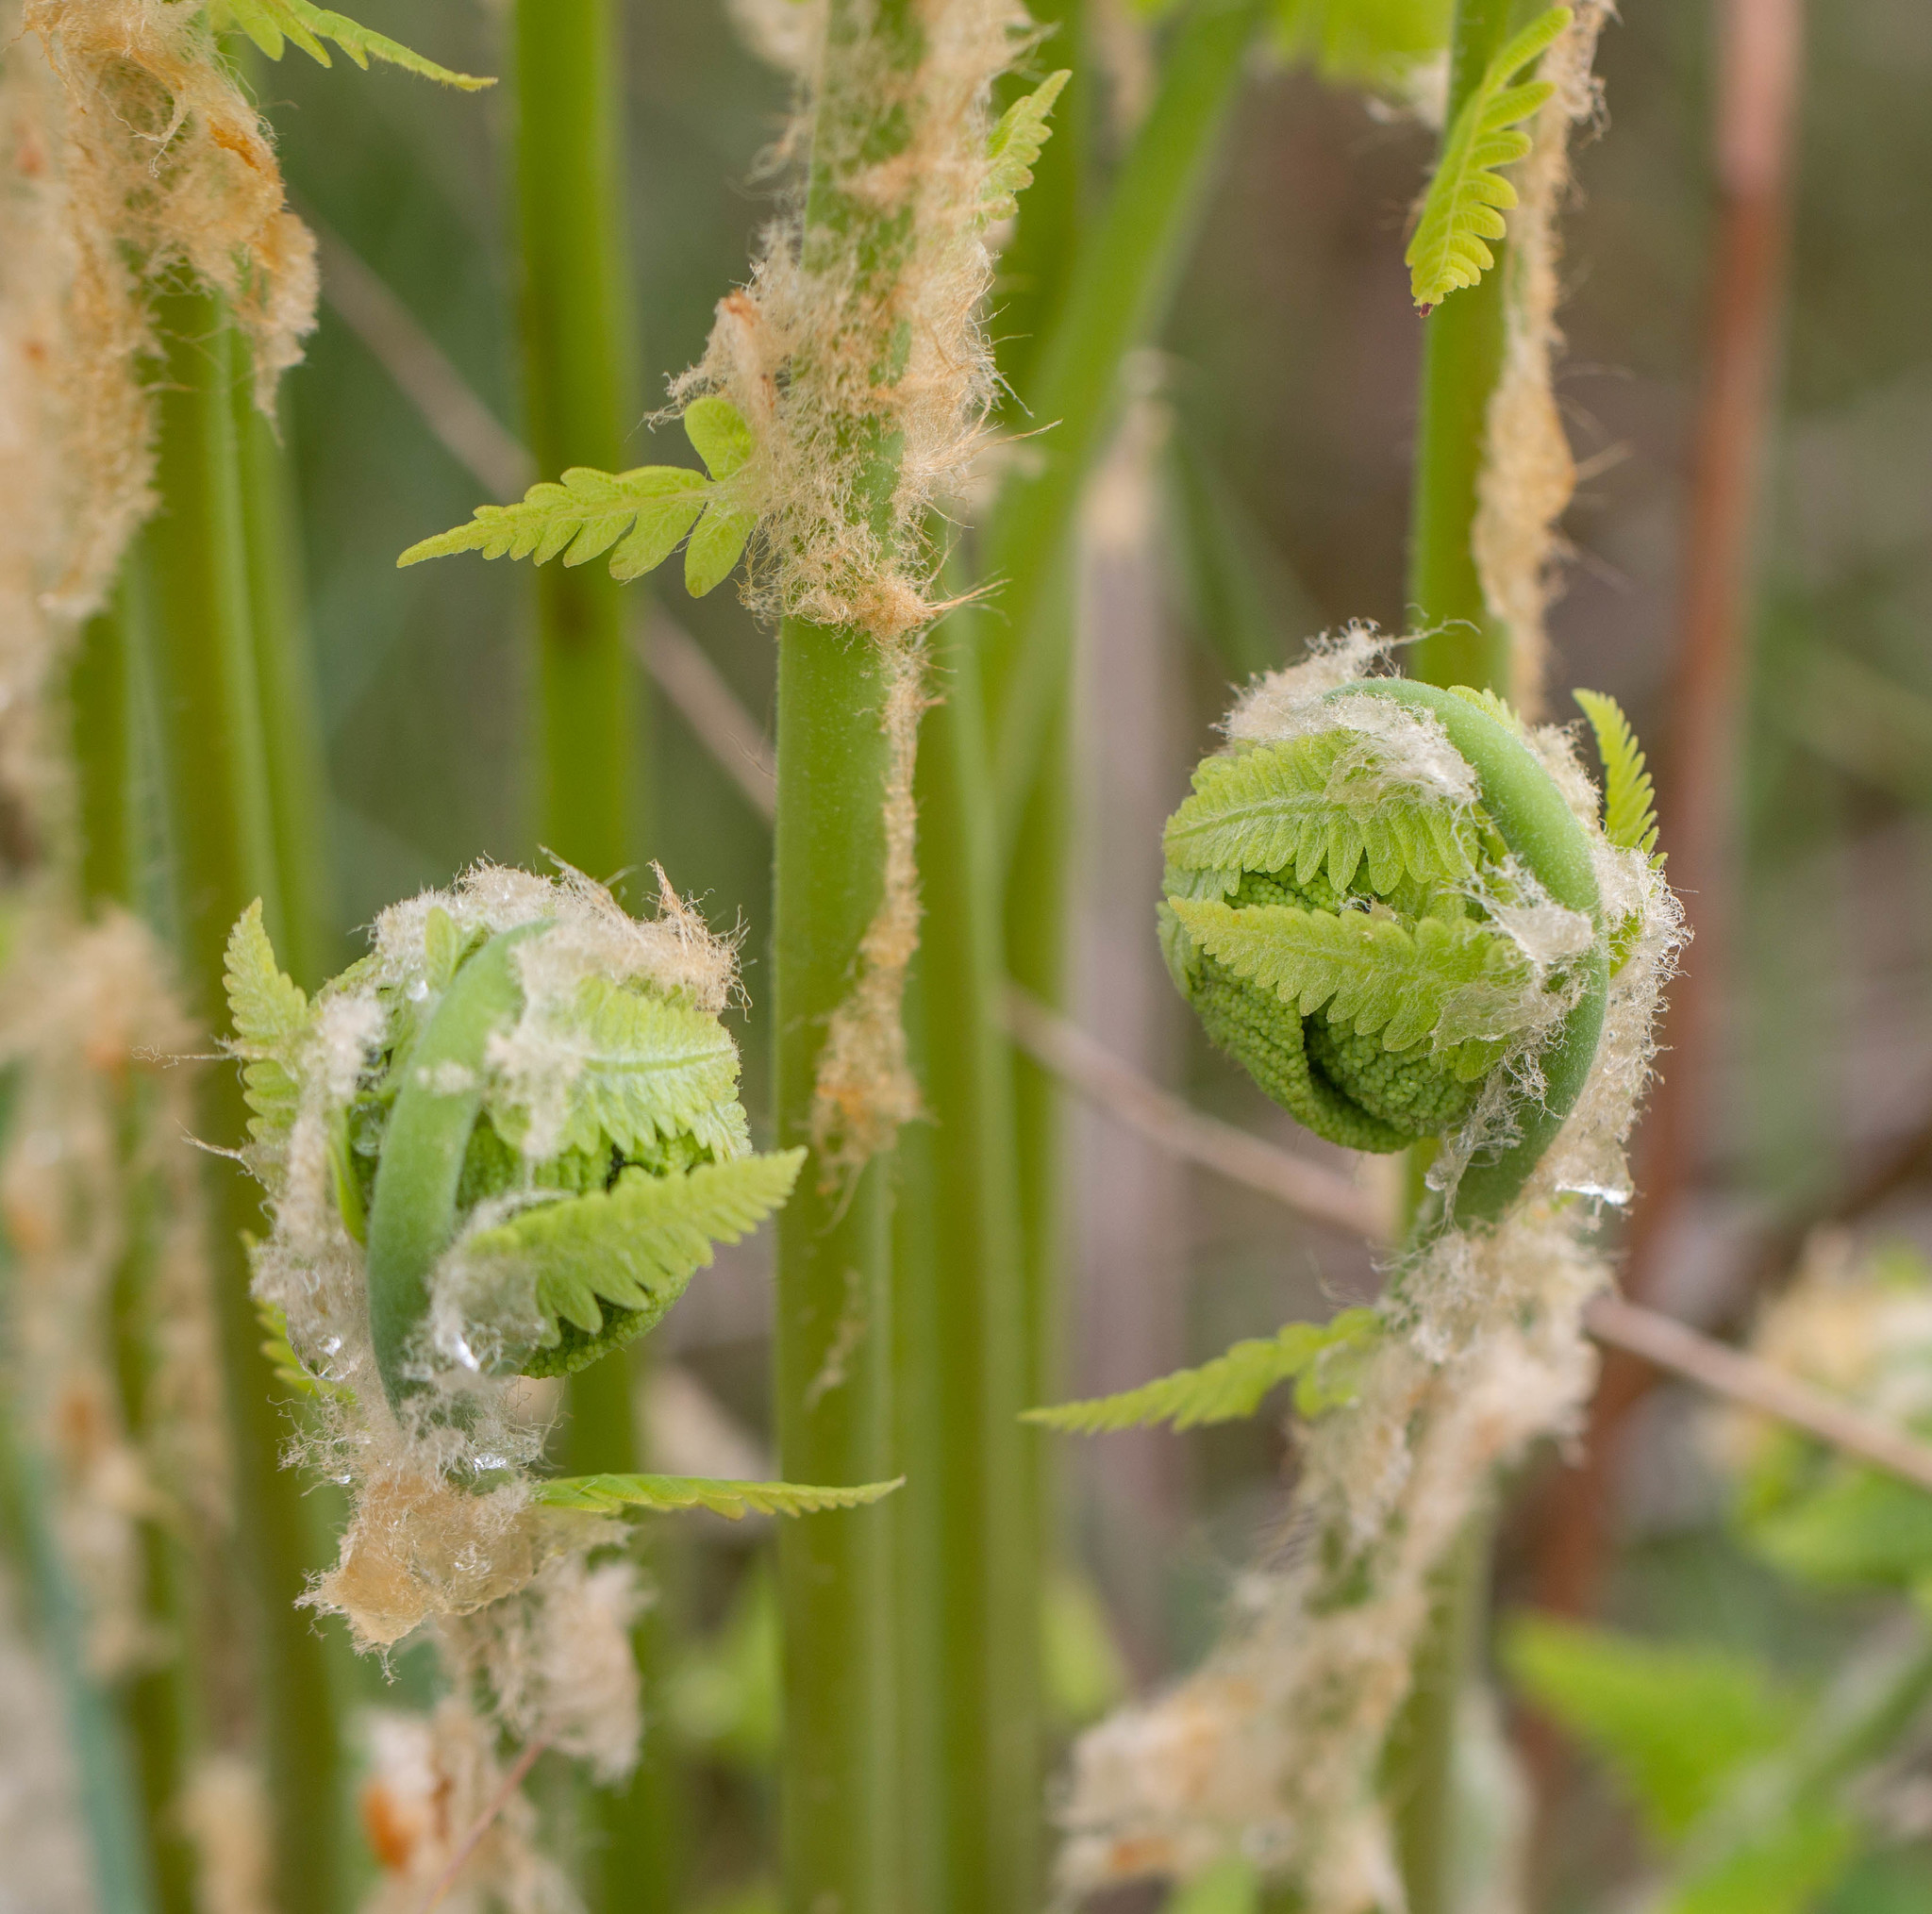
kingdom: Plantae
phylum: Tracheophyta
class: Polypodiopsida
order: Osmundales
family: Osmundaceae
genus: Claytosmunda
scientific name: Claytosmunda claytoniana
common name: Clayton's fern
